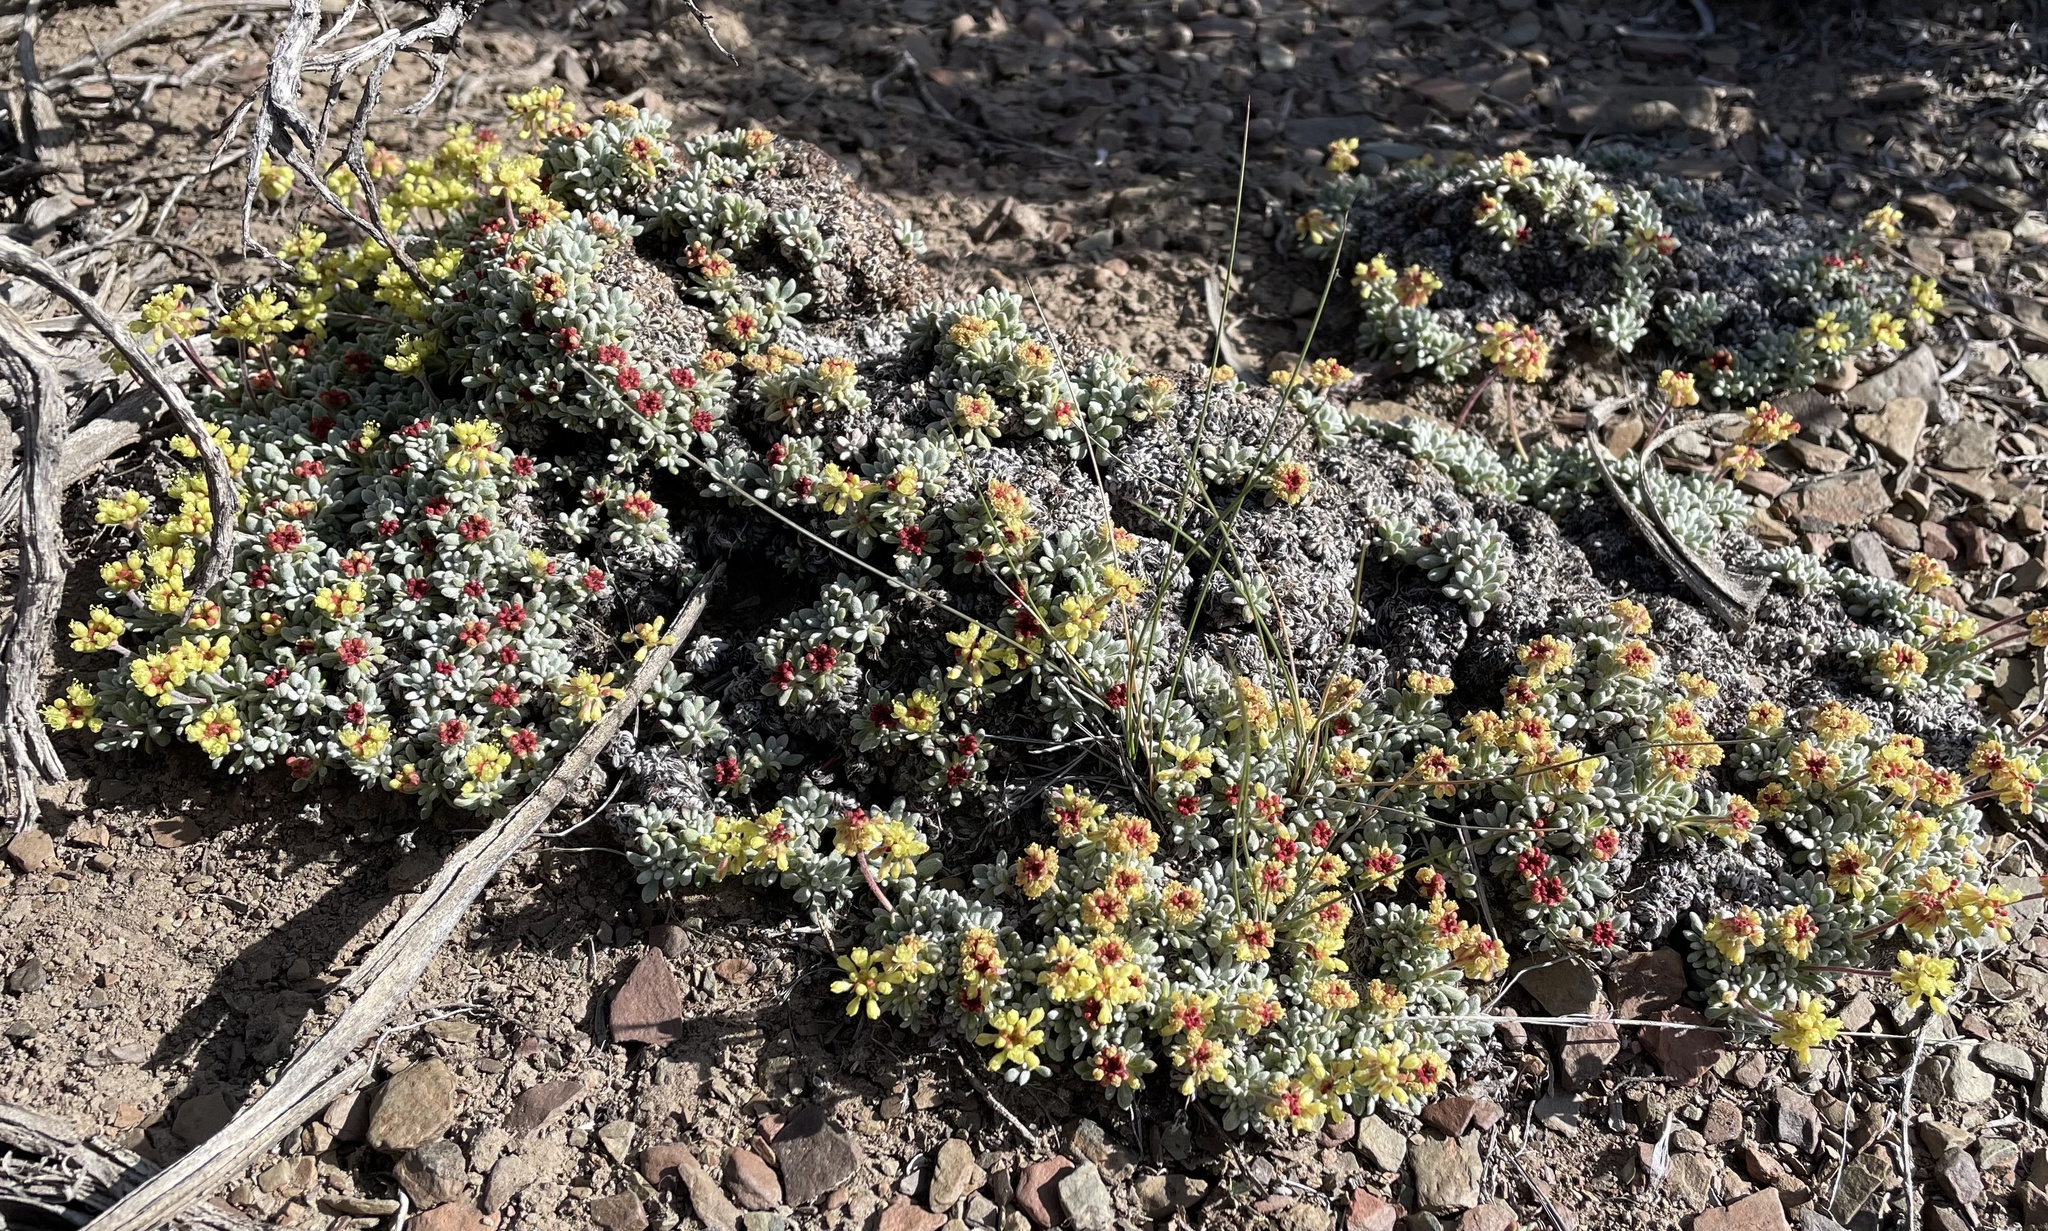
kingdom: Plantae
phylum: Tracheophyta
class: Magnoliopsida
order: Caryophyllales
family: Polygonaceae
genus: Eriogonum
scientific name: Eriogonum caespitosum
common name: Matted wild buckwheat
